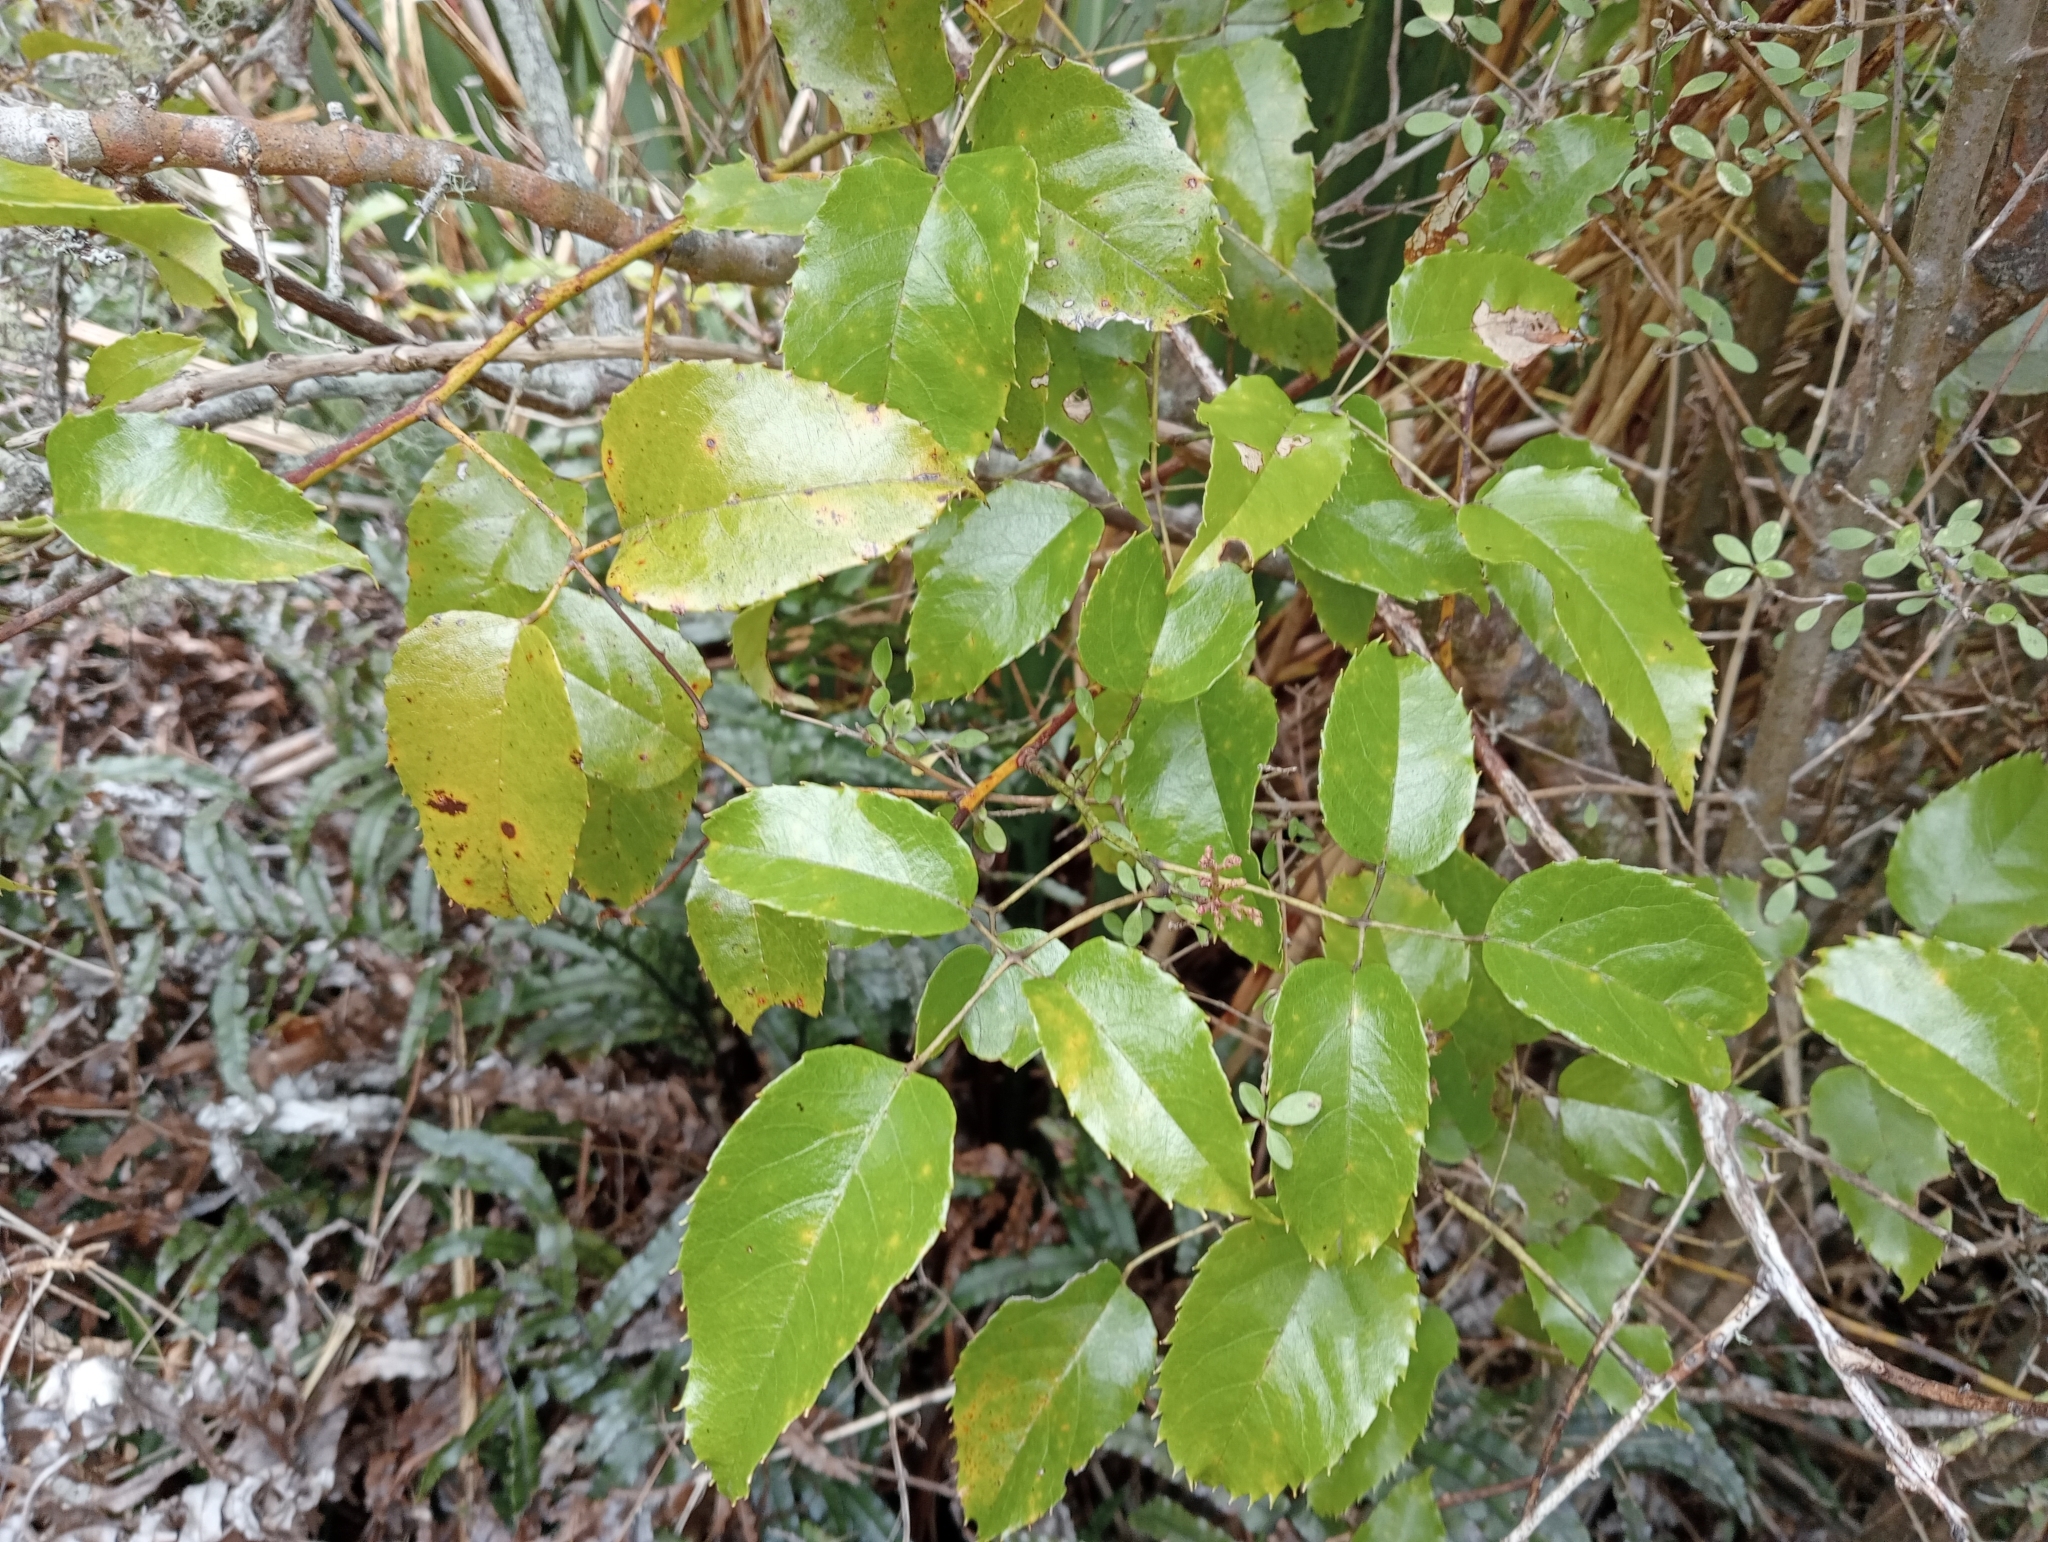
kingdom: Plantae
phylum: Tracheophyta
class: Magnoliopsida
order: Rosales
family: Rosaceae
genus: Rubus
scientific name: Rubus cissoides
